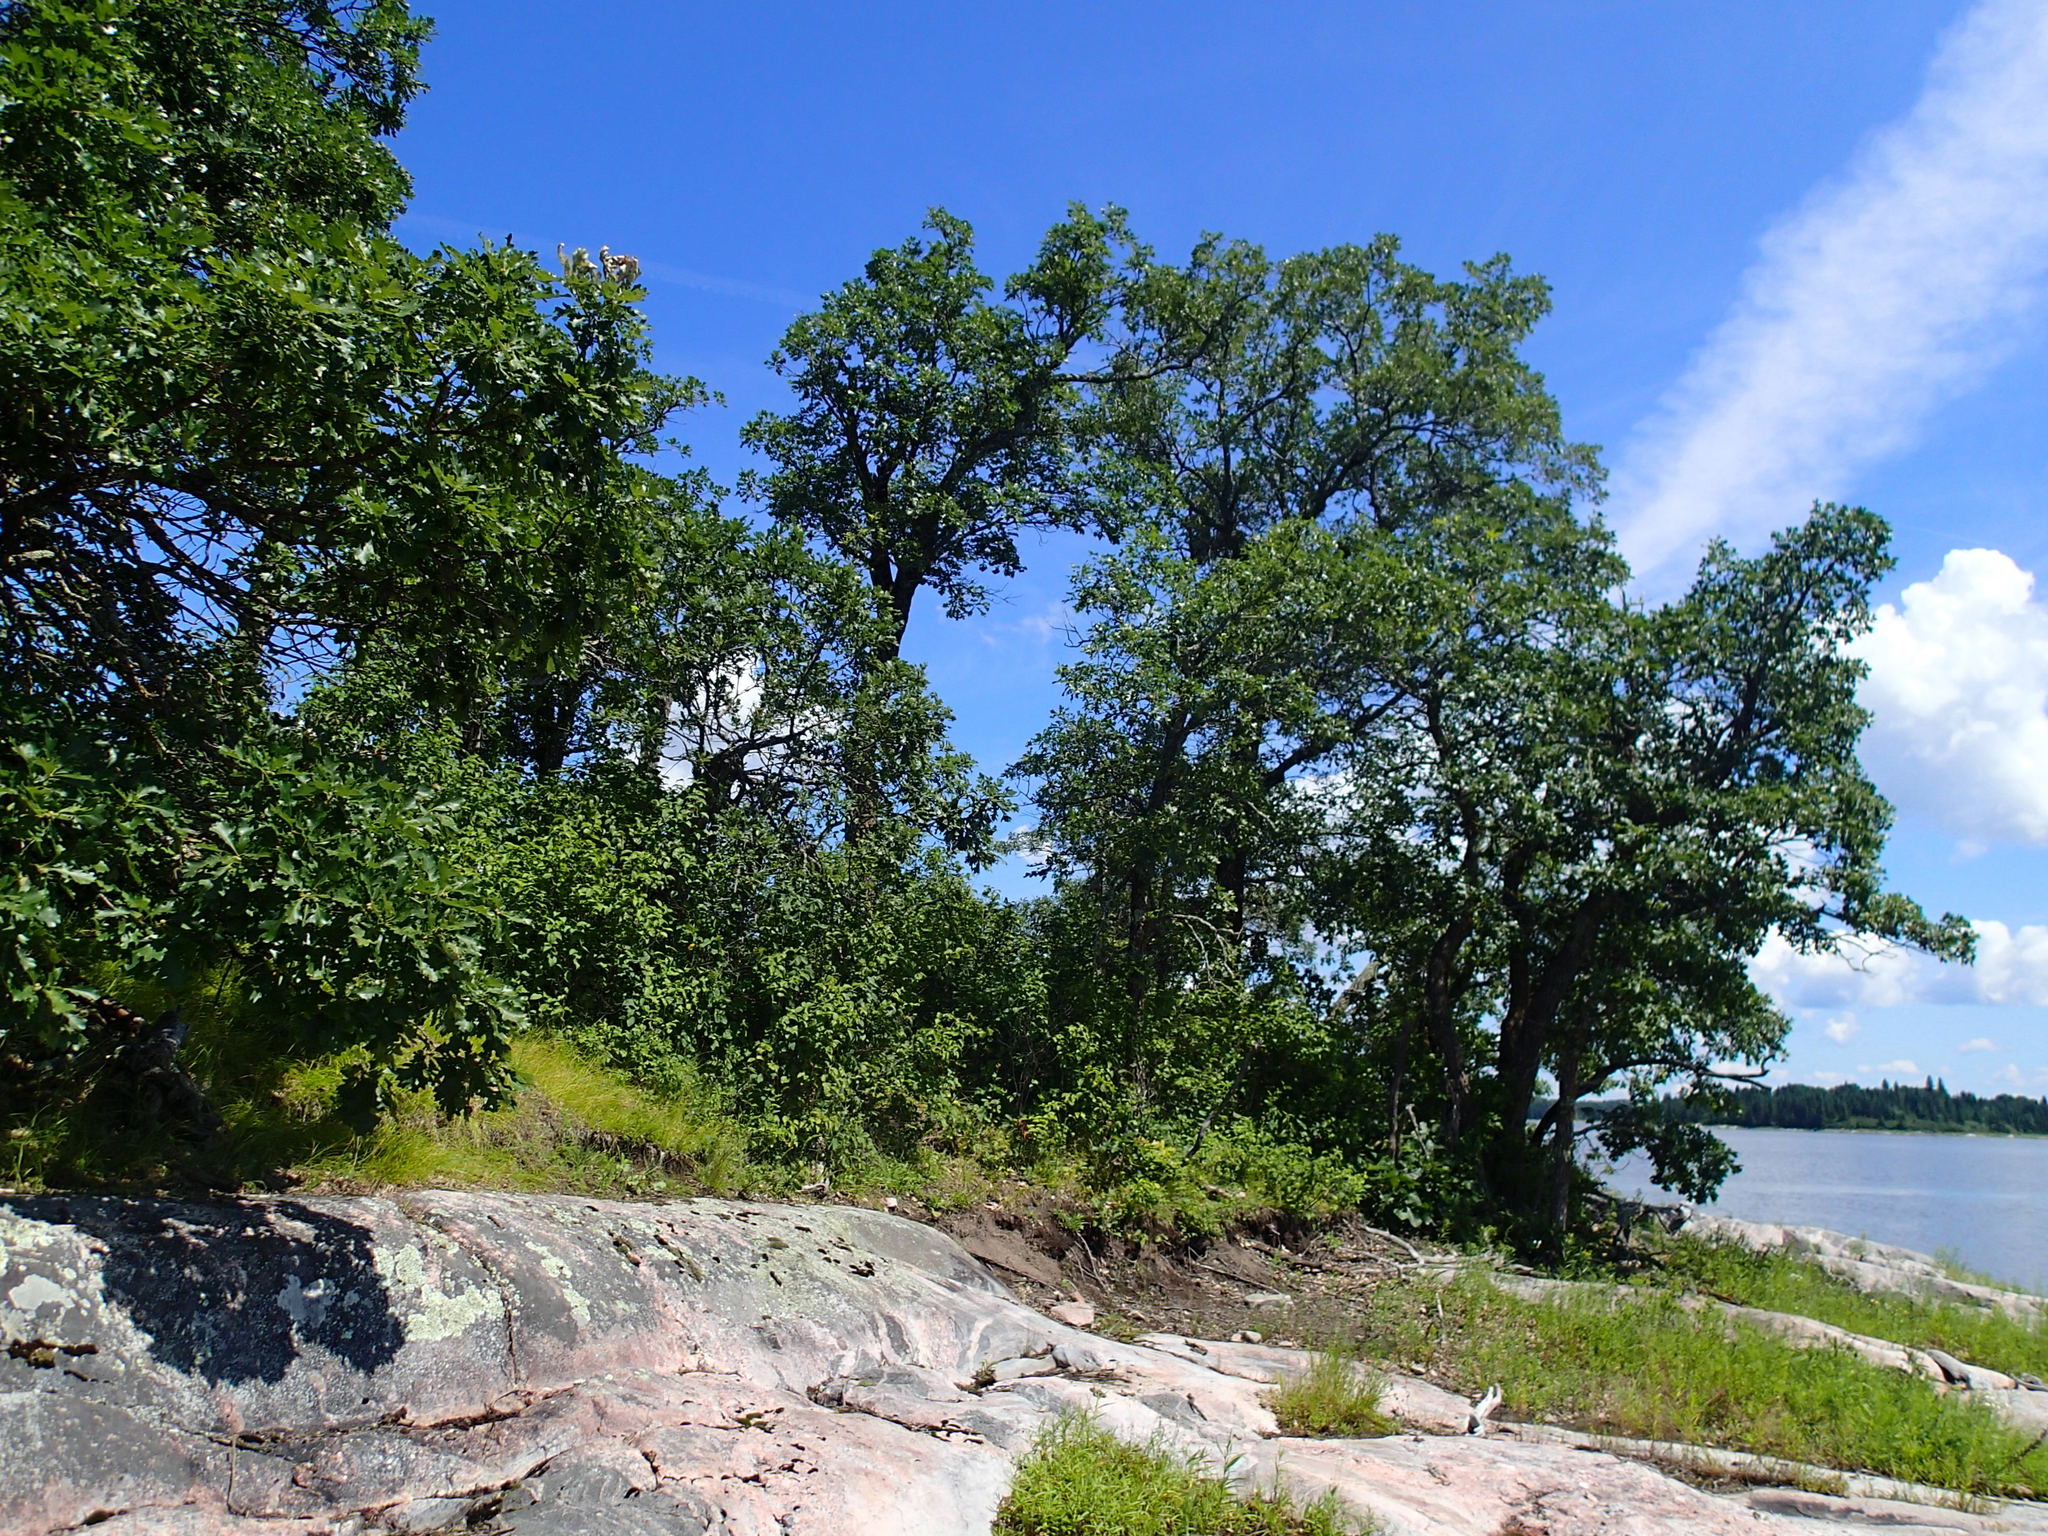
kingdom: Plantae
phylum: Tracheophyta
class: Magnoliopsida
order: Fagales
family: Fagaceae
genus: Quercus
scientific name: Quercus macrocarpa
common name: Bur oak
